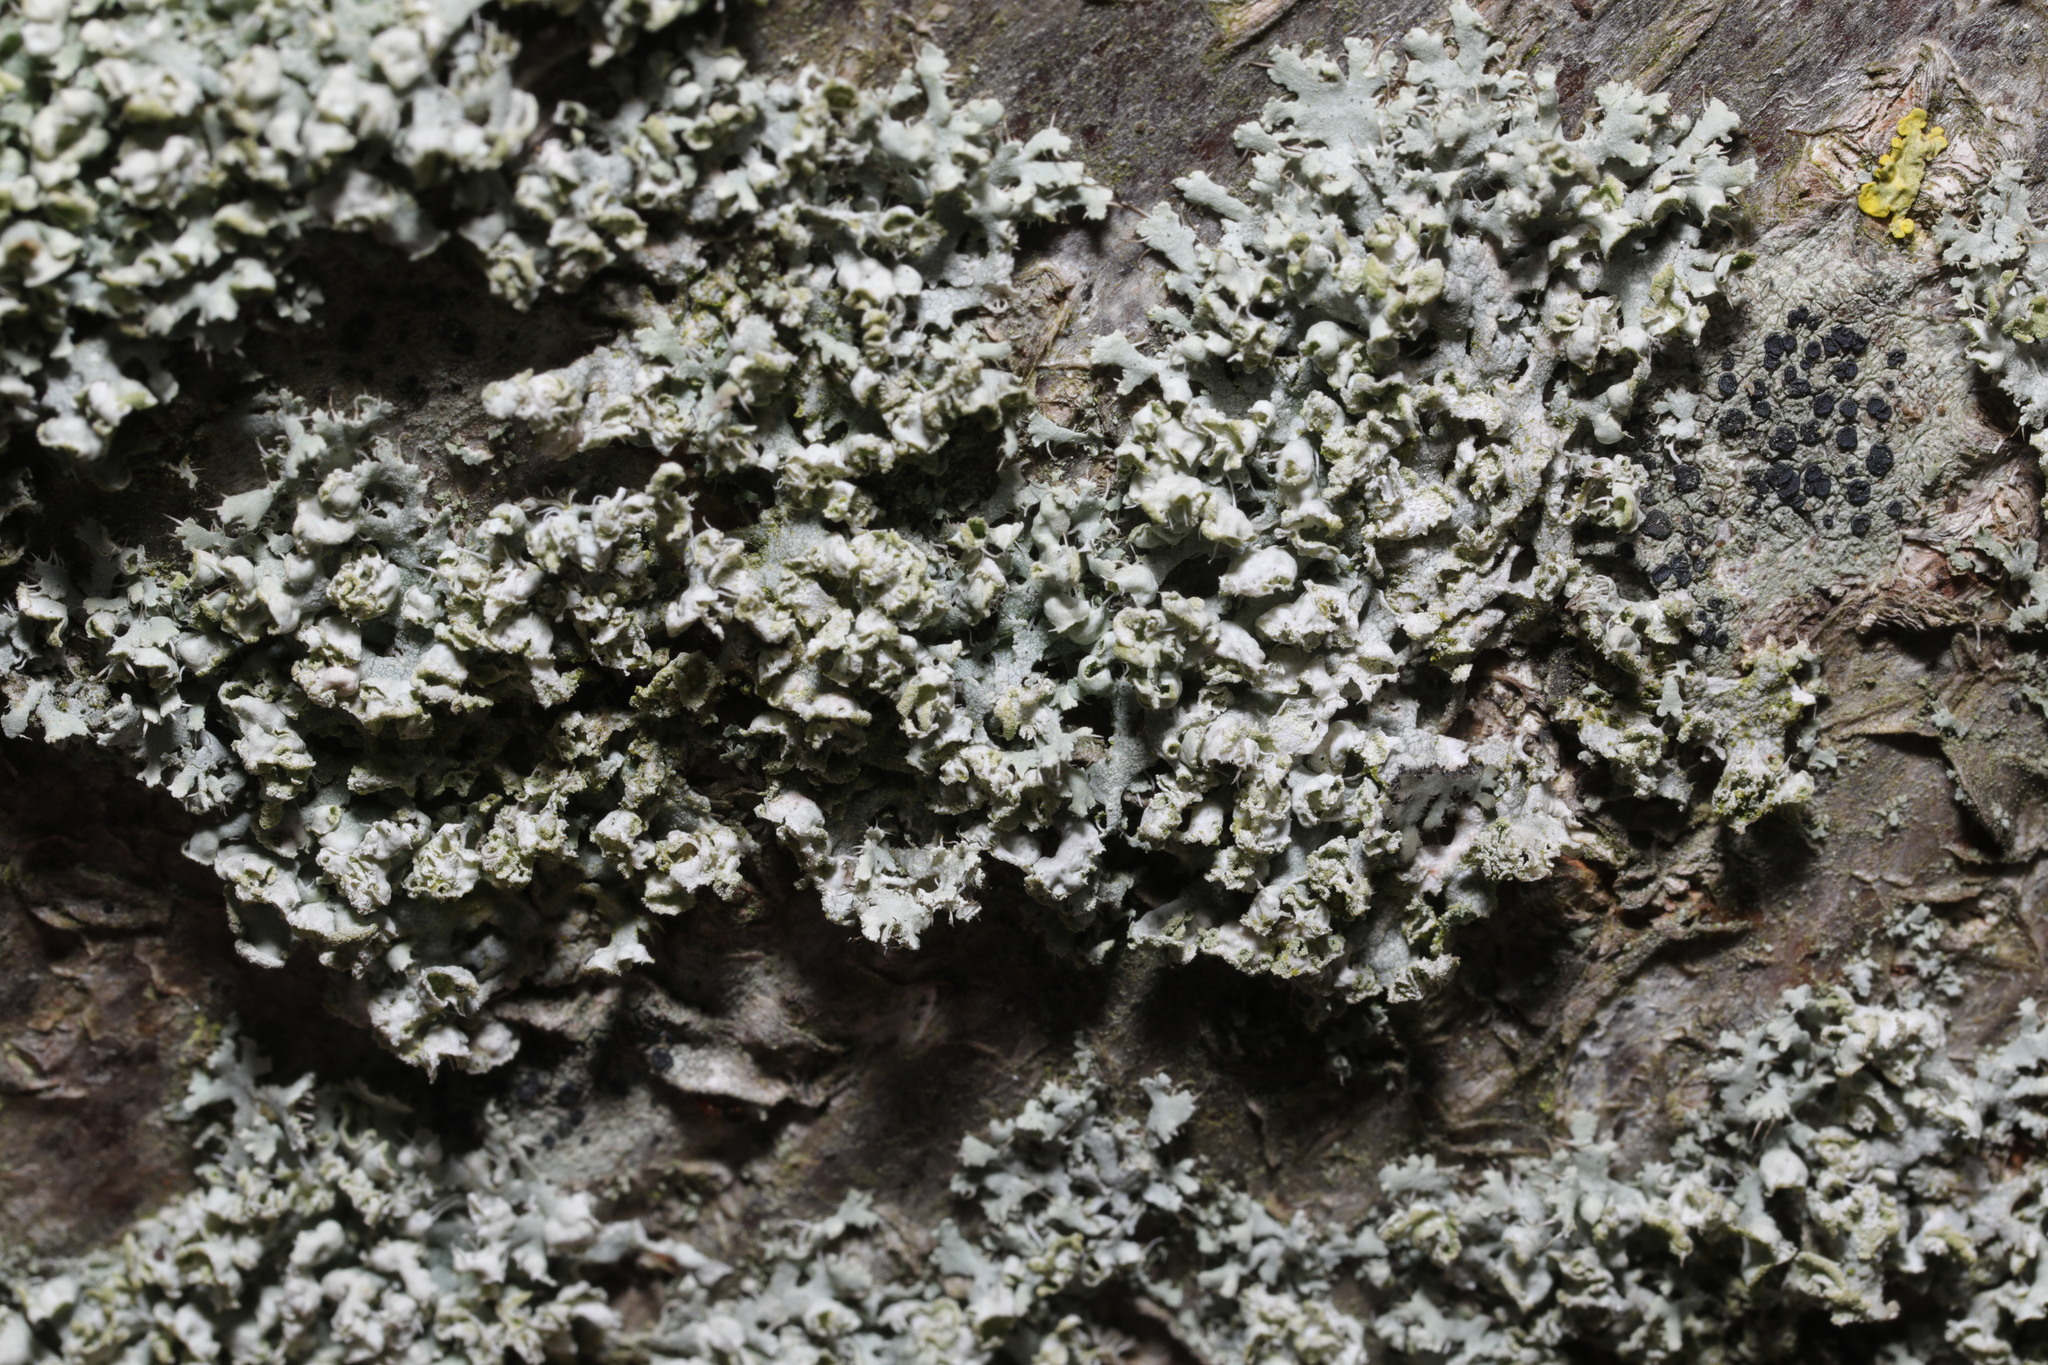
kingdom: Fungi
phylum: Ascomycota
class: Lecanoromycetes
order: Caliciales
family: Physciaceae
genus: Physcia
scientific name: Physcia adscendens
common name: Hooded rosette lichen
